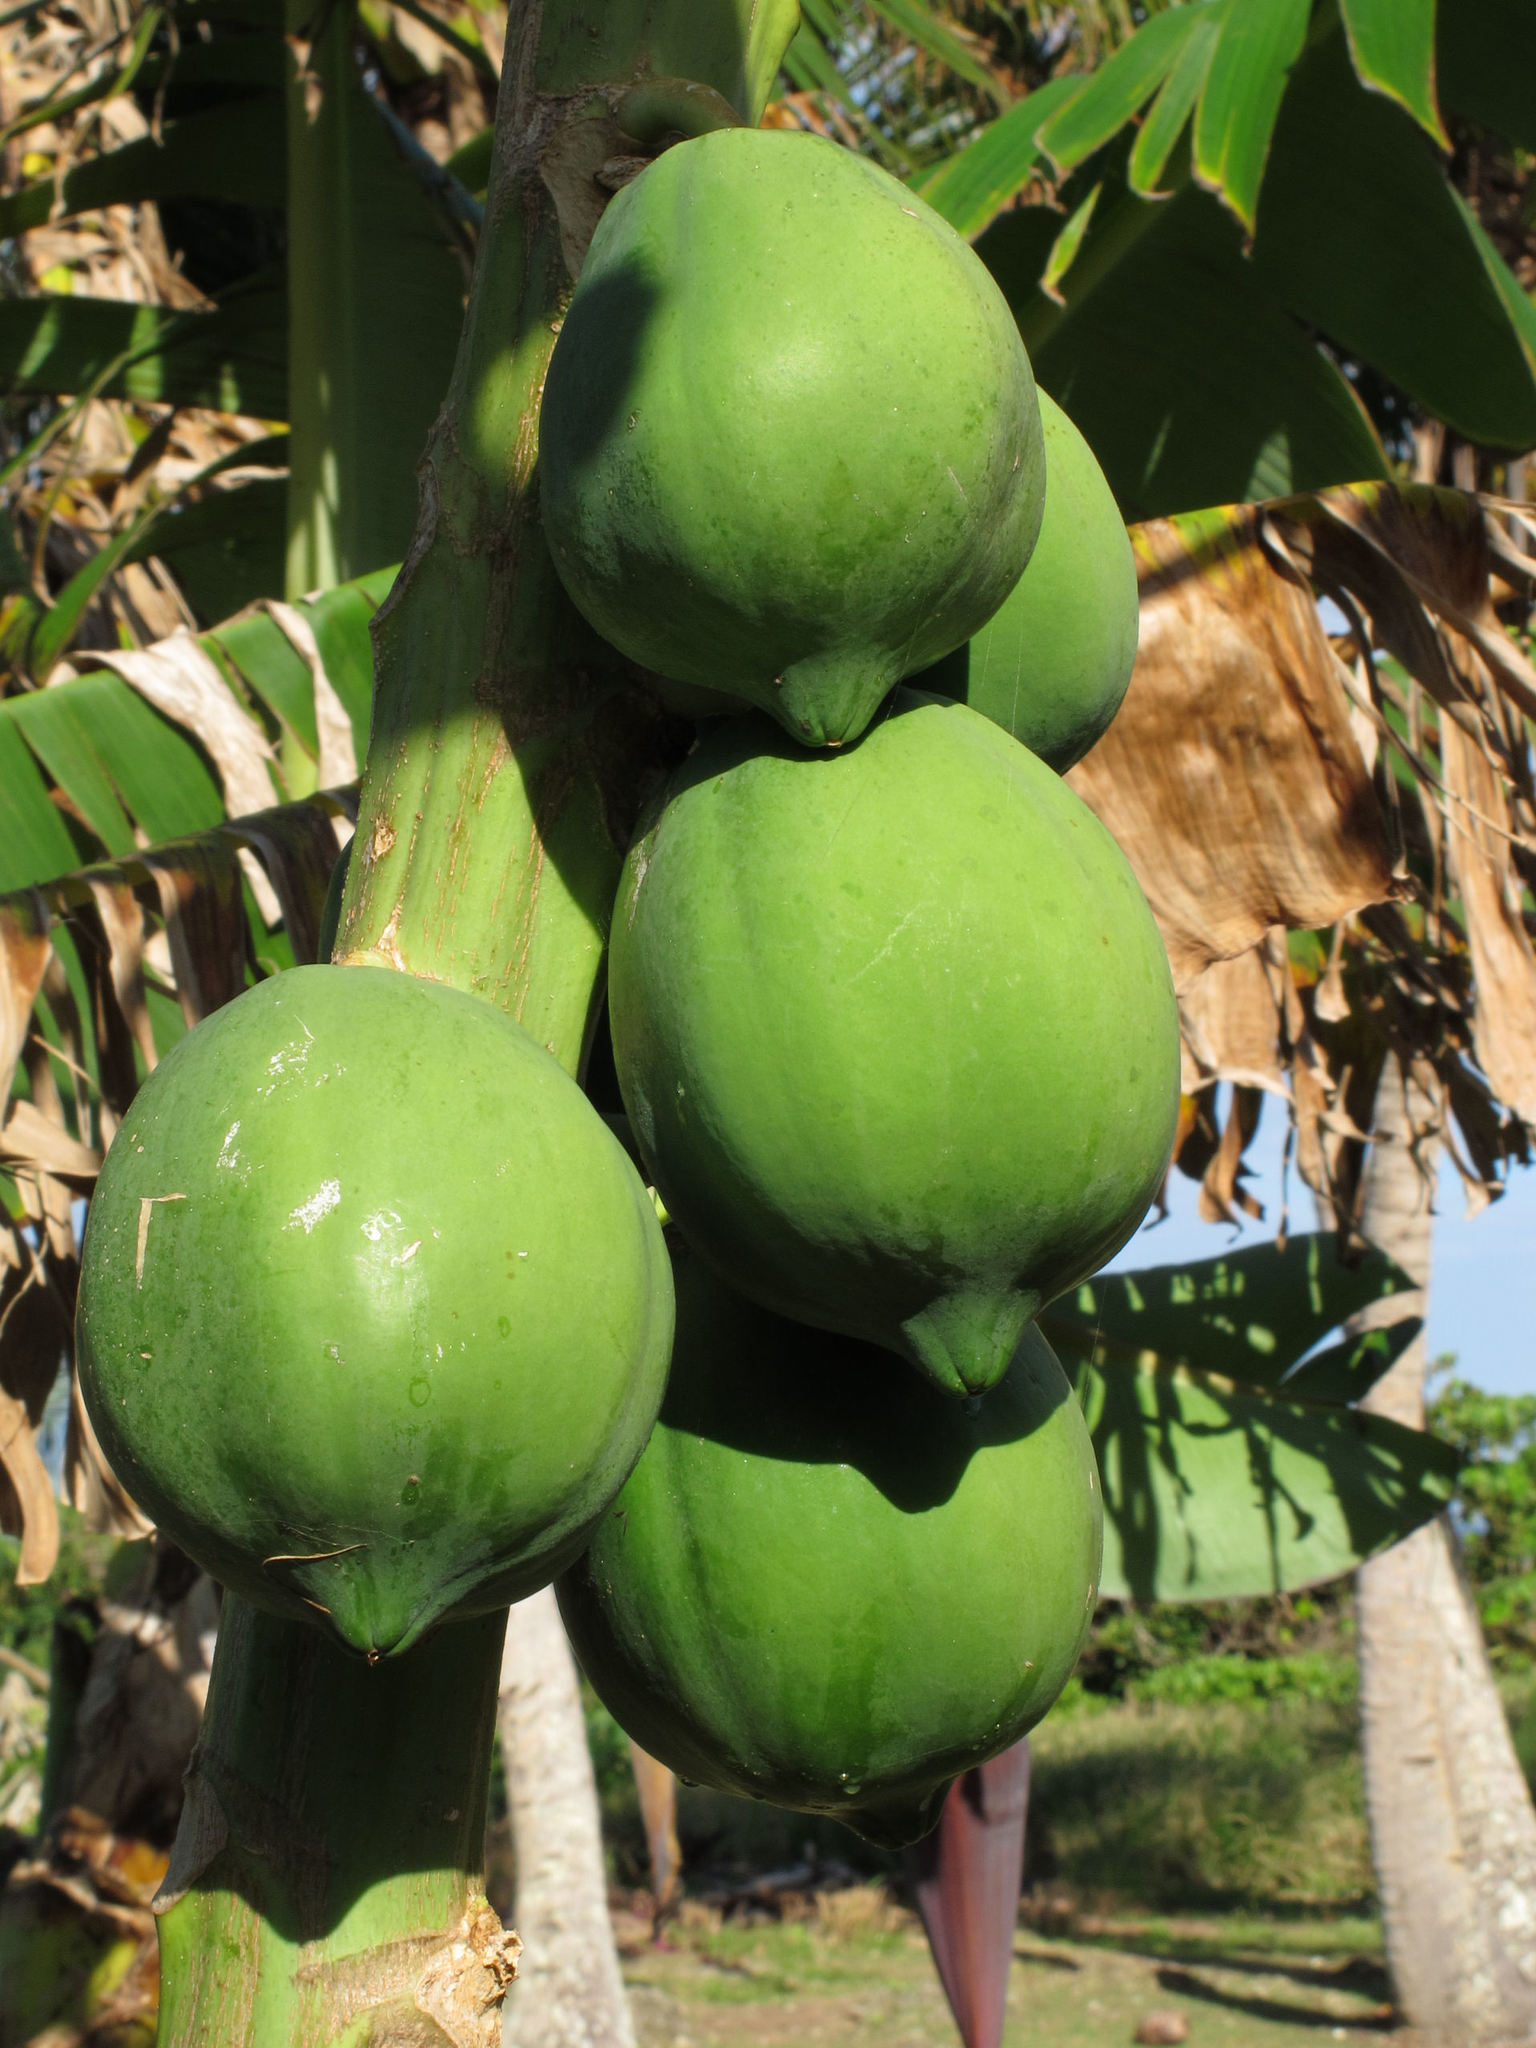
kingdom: Plantae
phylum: Tracheophyta
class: Magnoliopsida
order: Brassicales
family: Caricaceae
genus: Carica
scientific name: Carica papaya
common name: Papaya
